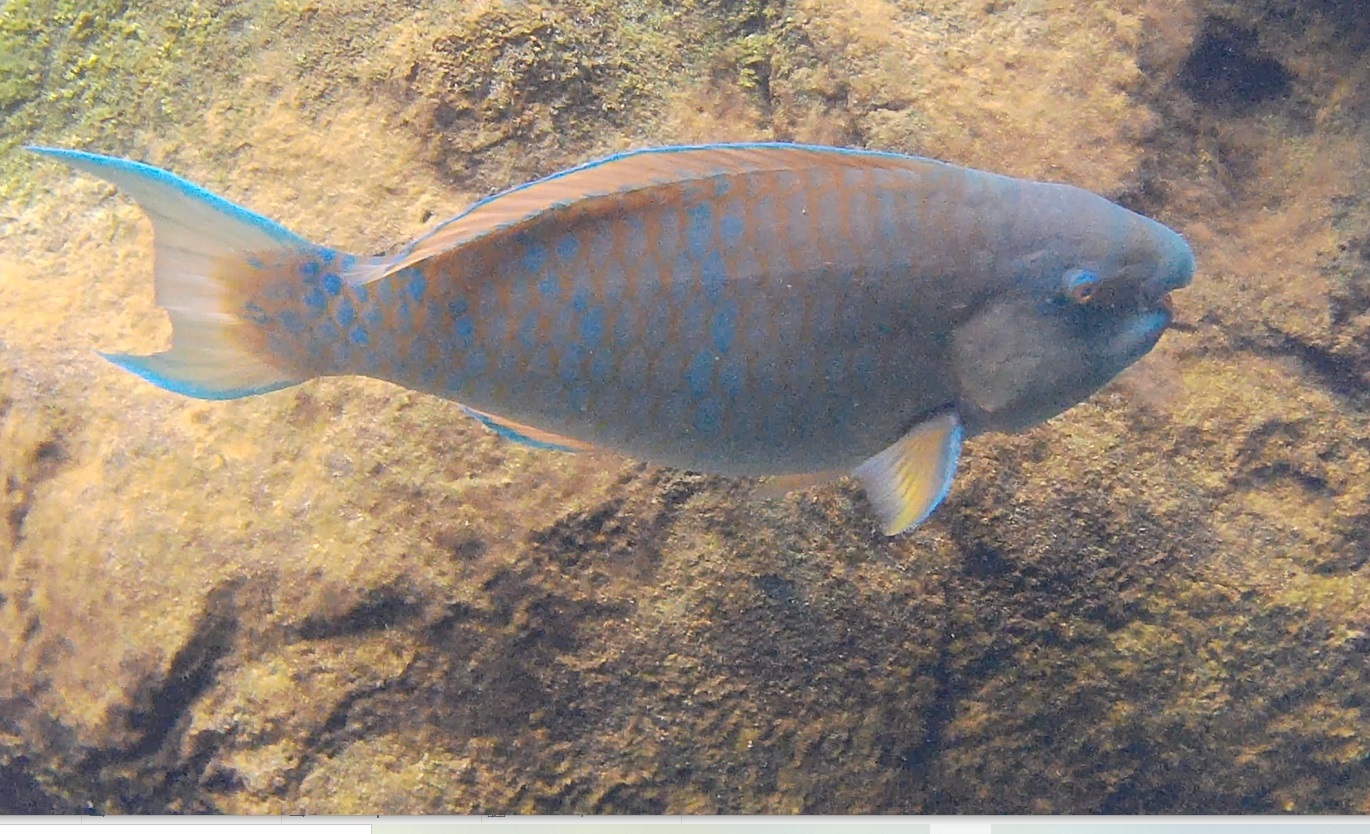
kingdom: Animalia
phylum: Chordata
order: Perciformes
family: Scaridae
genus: Scarus
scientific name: Scarus ghobban
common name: Blue-barred parrotfish
